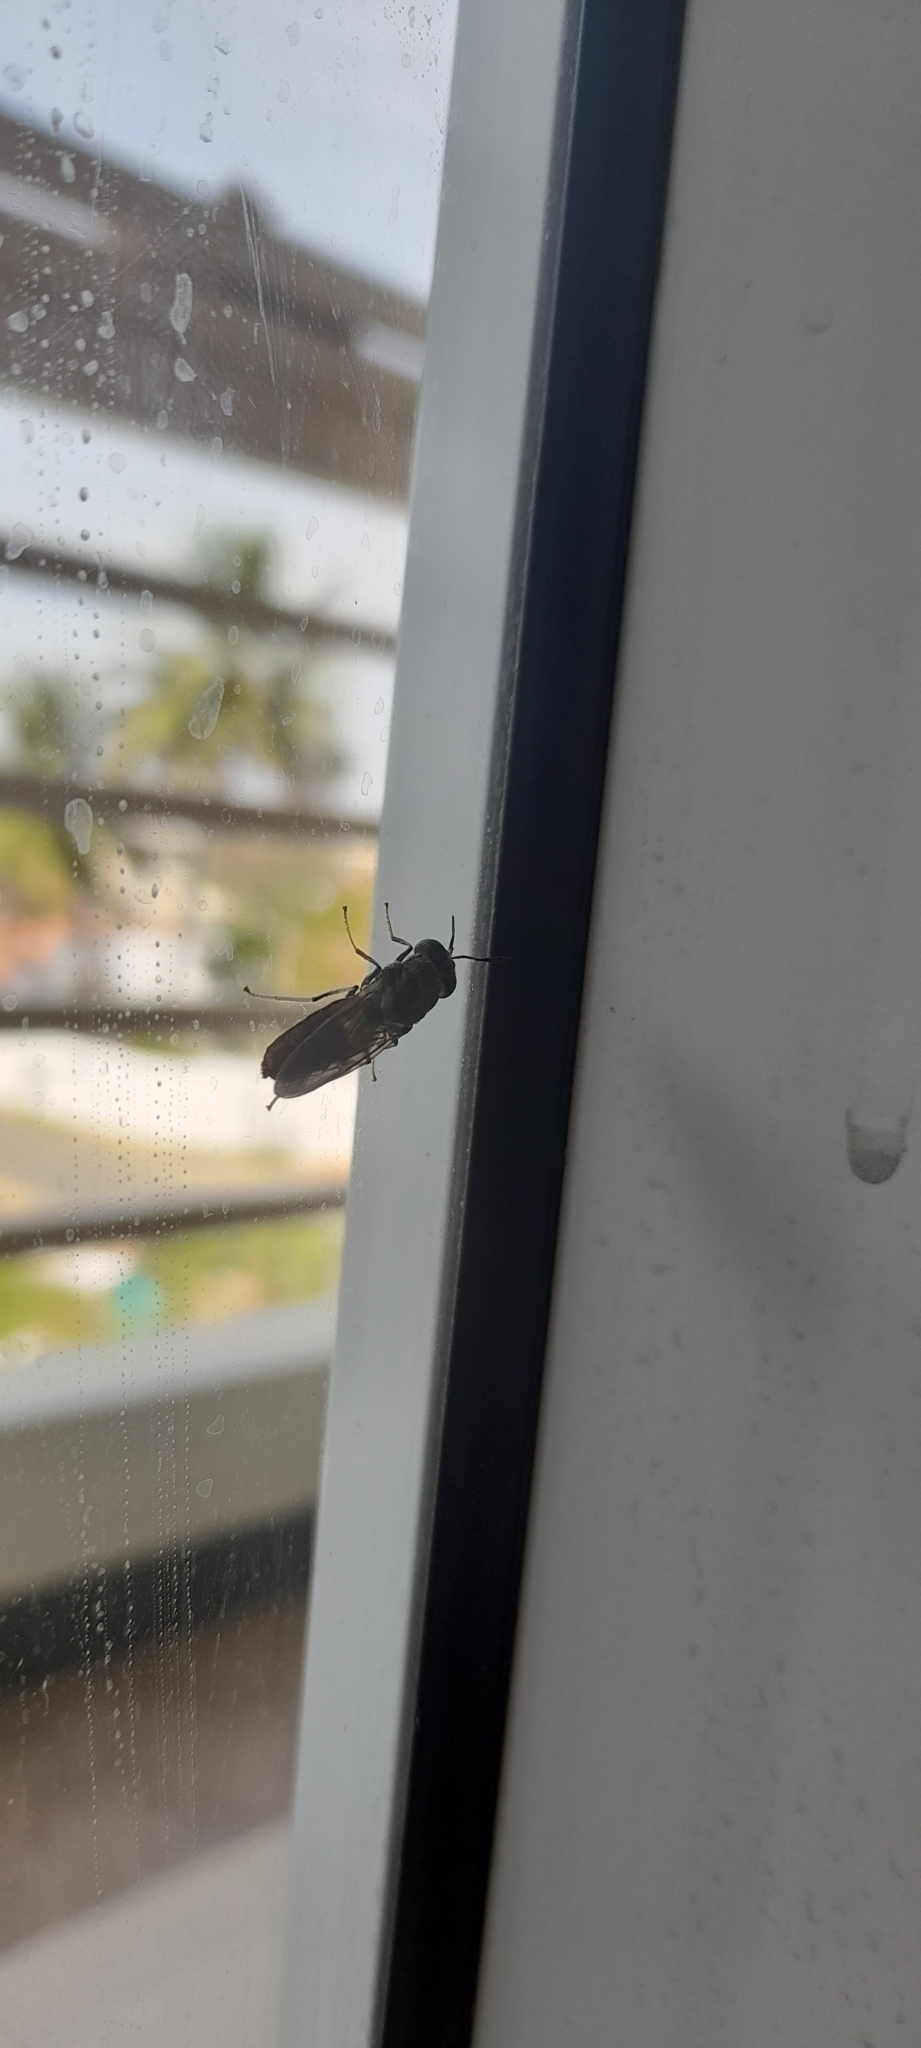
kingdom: Animalia
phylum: Arthropoda
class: Insecta
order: Diptera
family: Stratiomyidae
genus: Hermetia
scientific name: Hermetia illucens
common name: Black soldier fly
